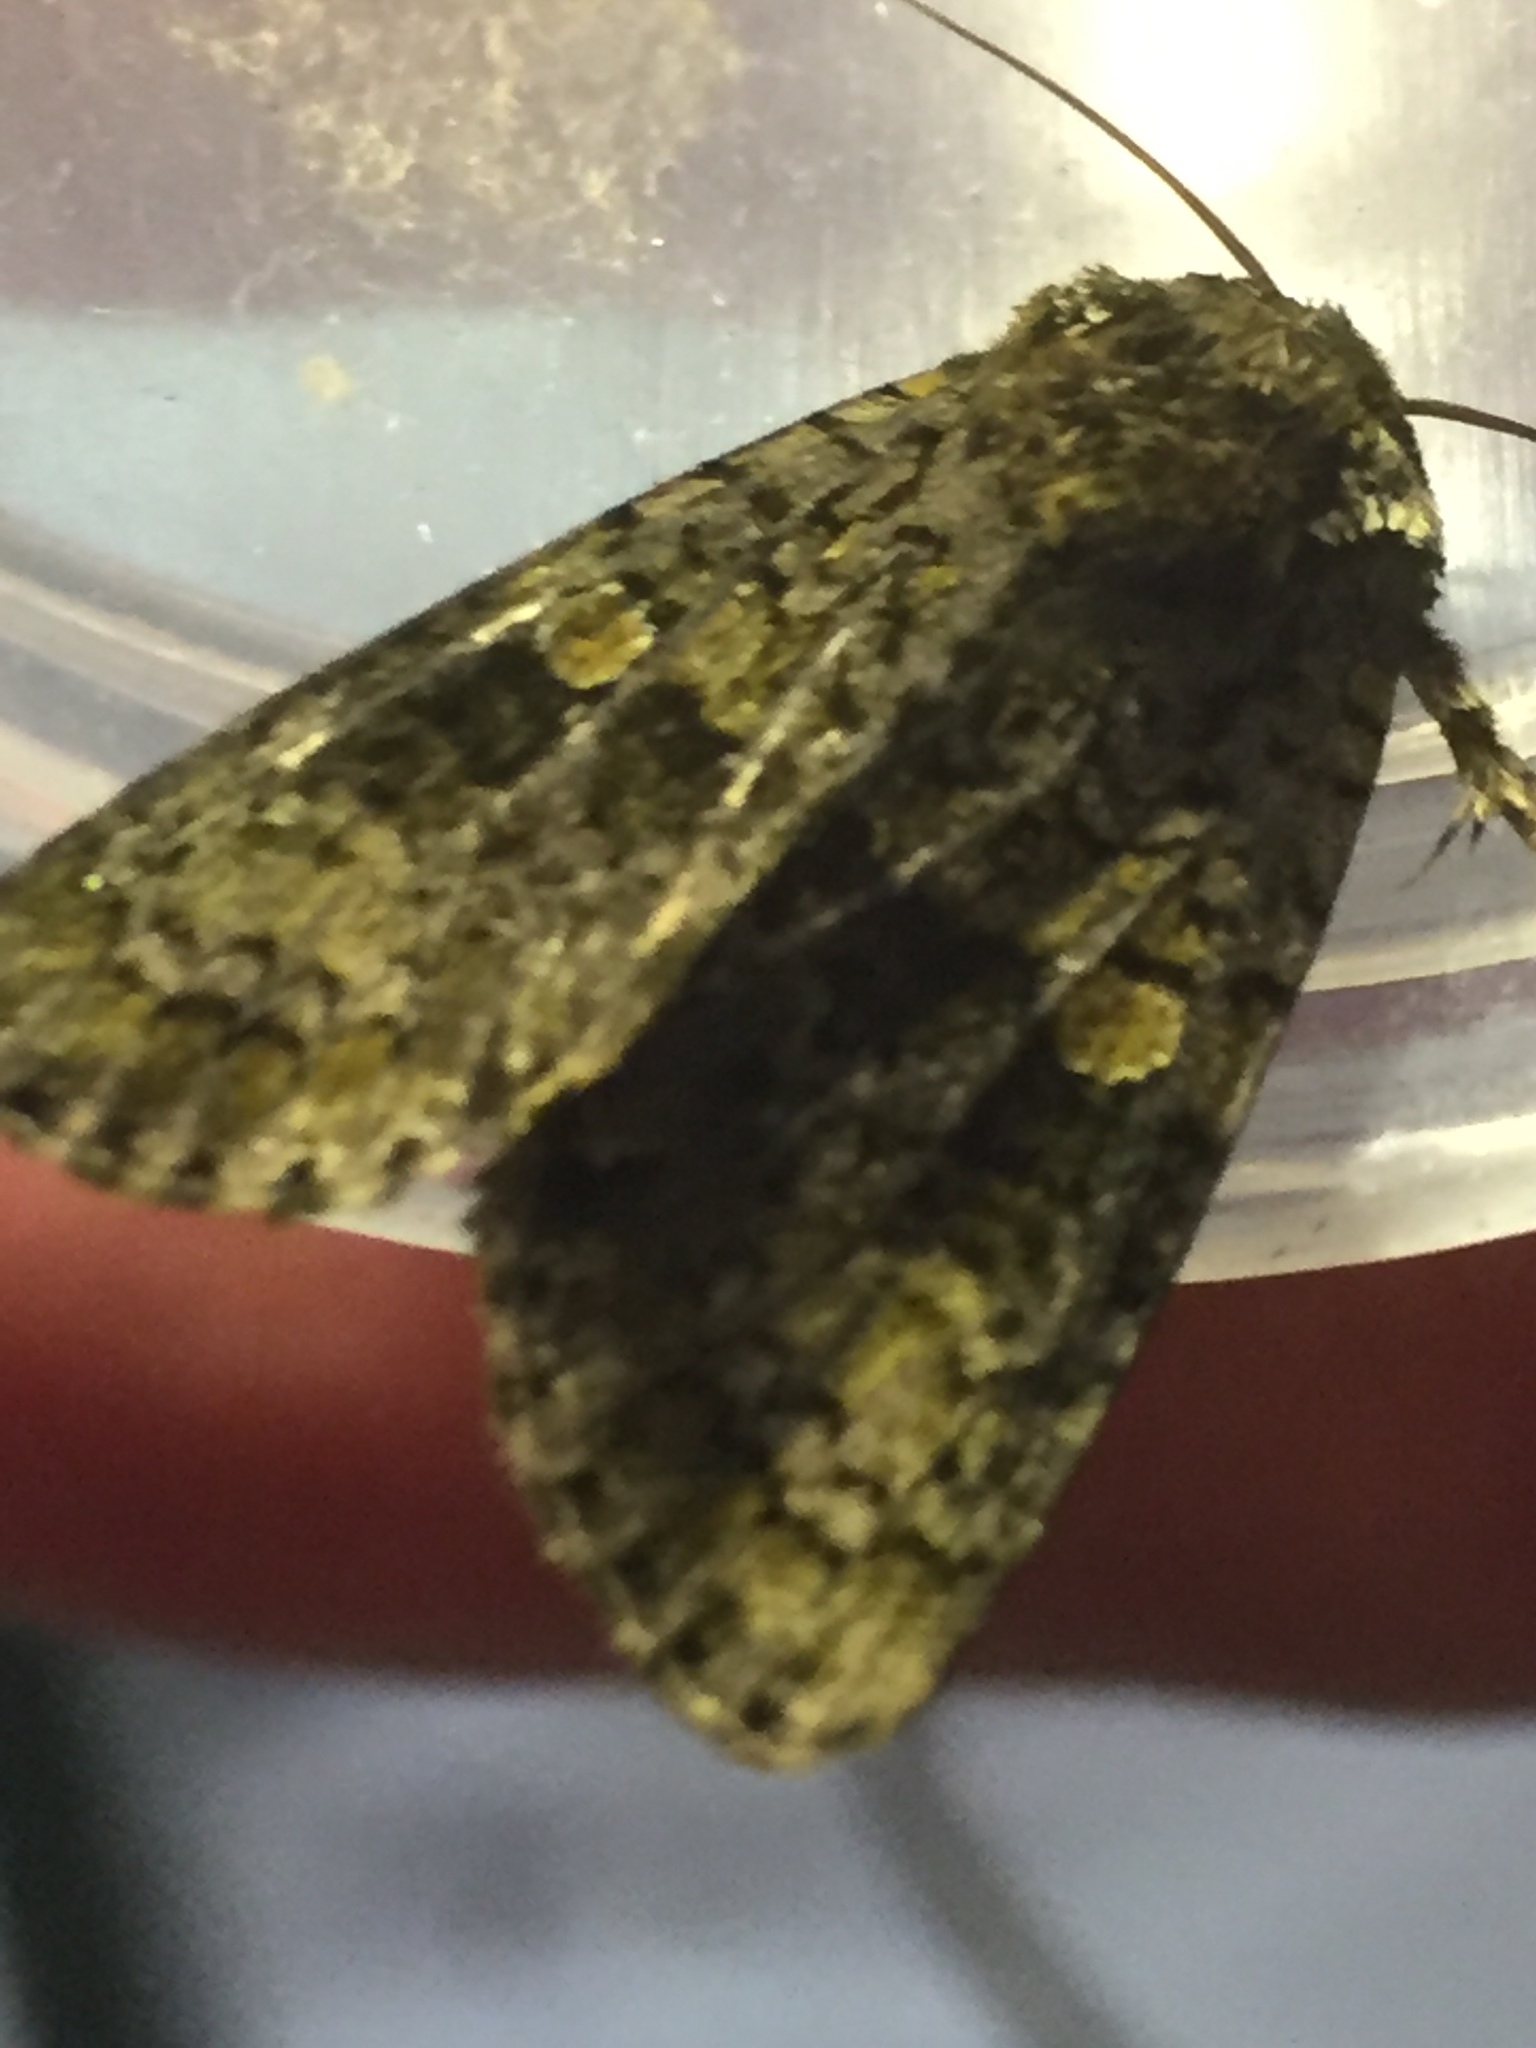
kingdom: Animalia
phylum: Arthropoda
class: Insecta
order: Lepidoptera
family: Noctuidae
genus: Craniophora
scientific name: Craniophora ligustri
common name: Coronet
